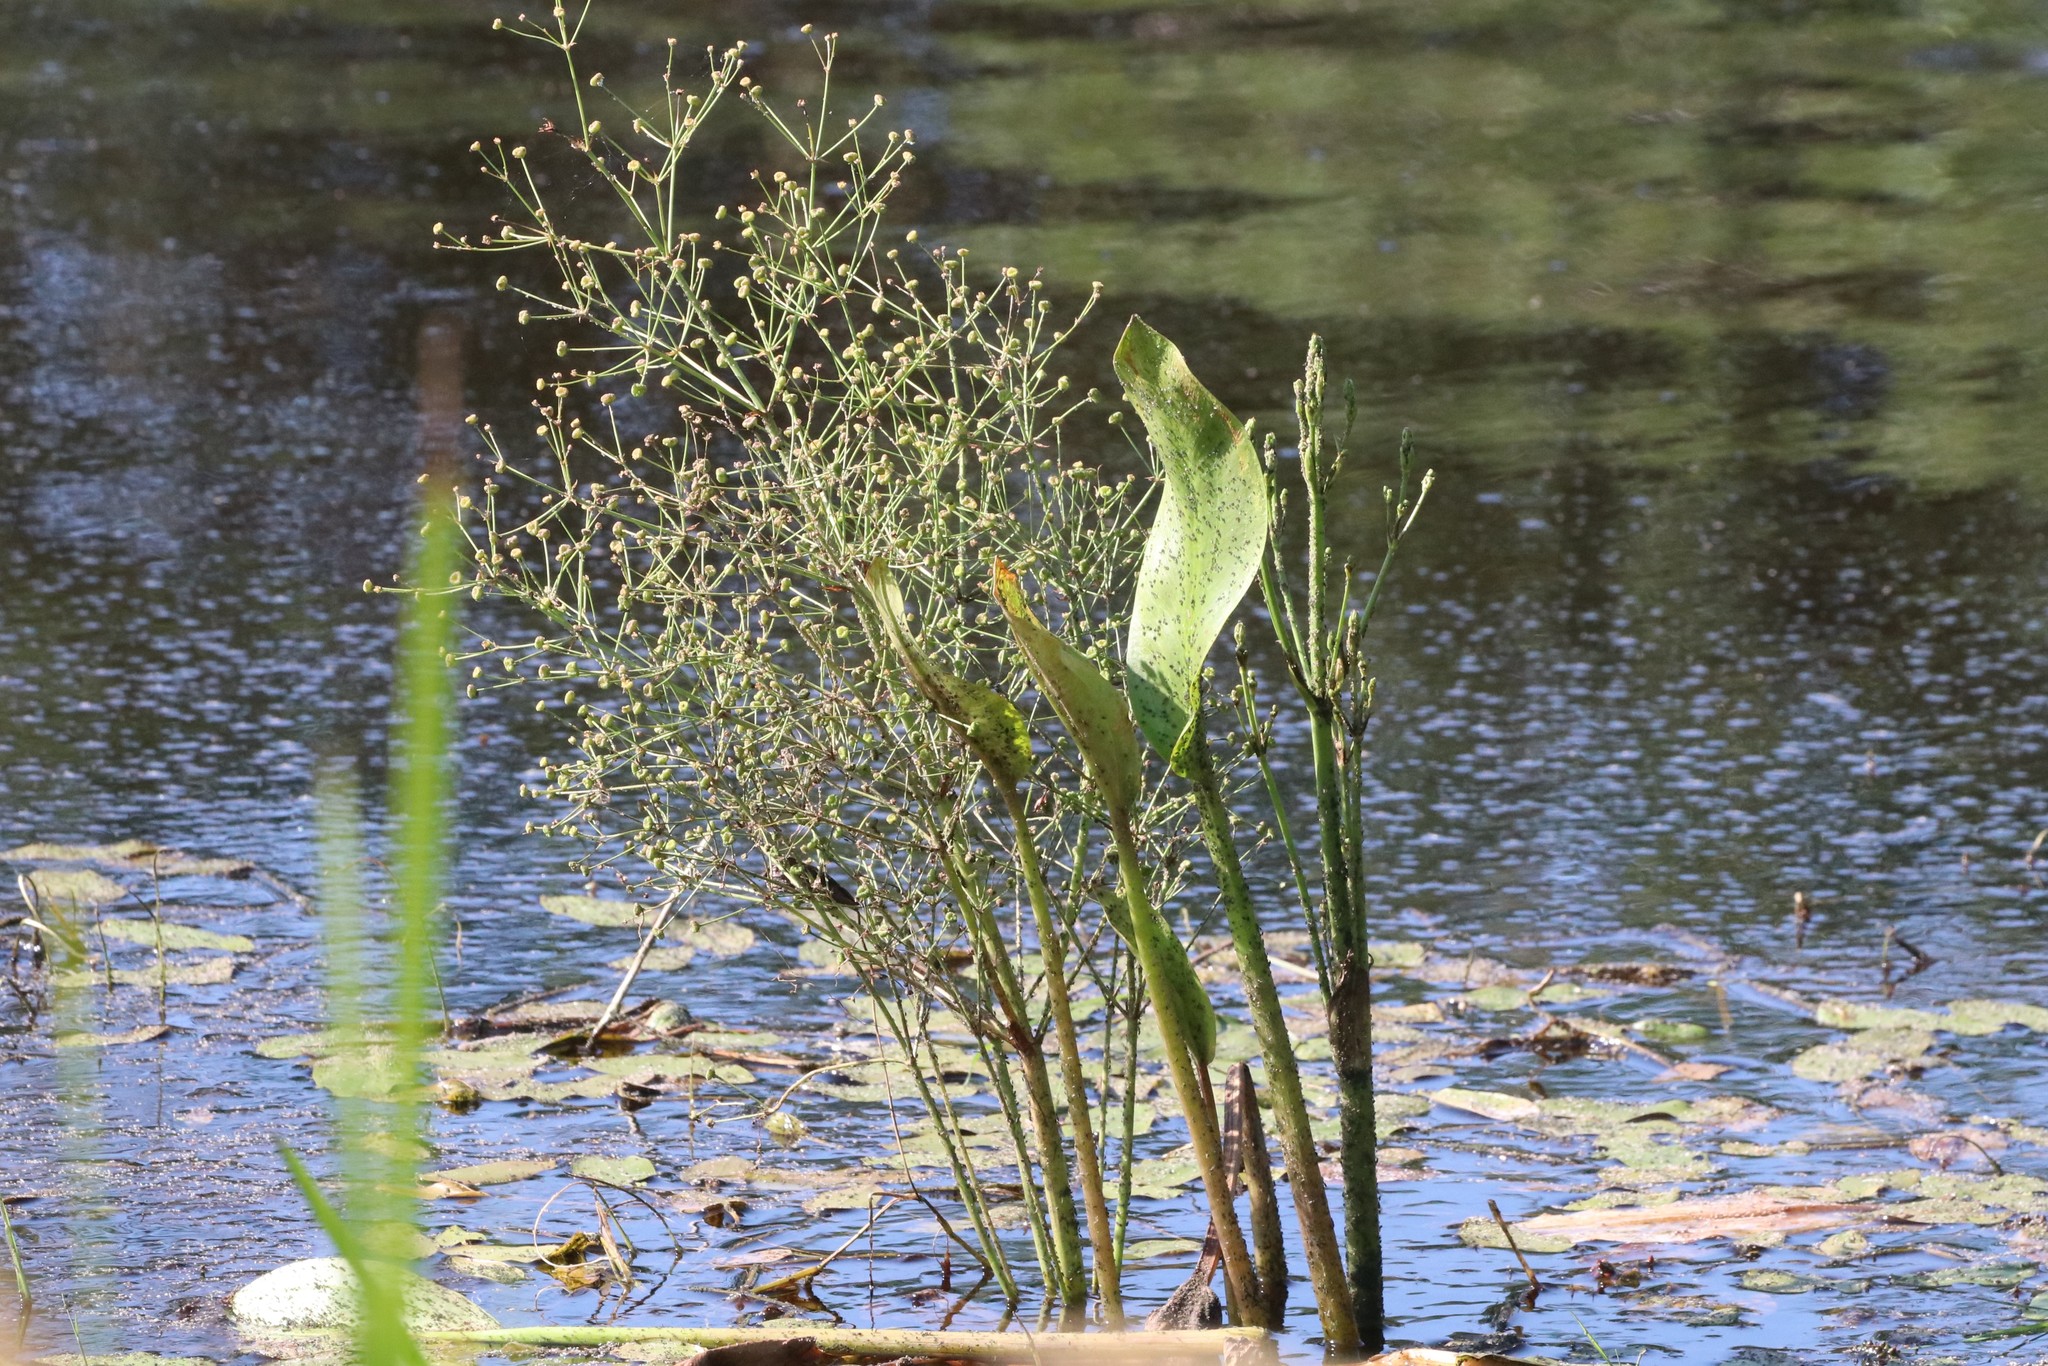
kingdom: Plantae
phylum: Tracheophyta
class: Liliopsida
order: Alismatales
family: Alismataceae
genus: Alisma
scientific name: Alisma triviale
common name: Northern water-plantain
